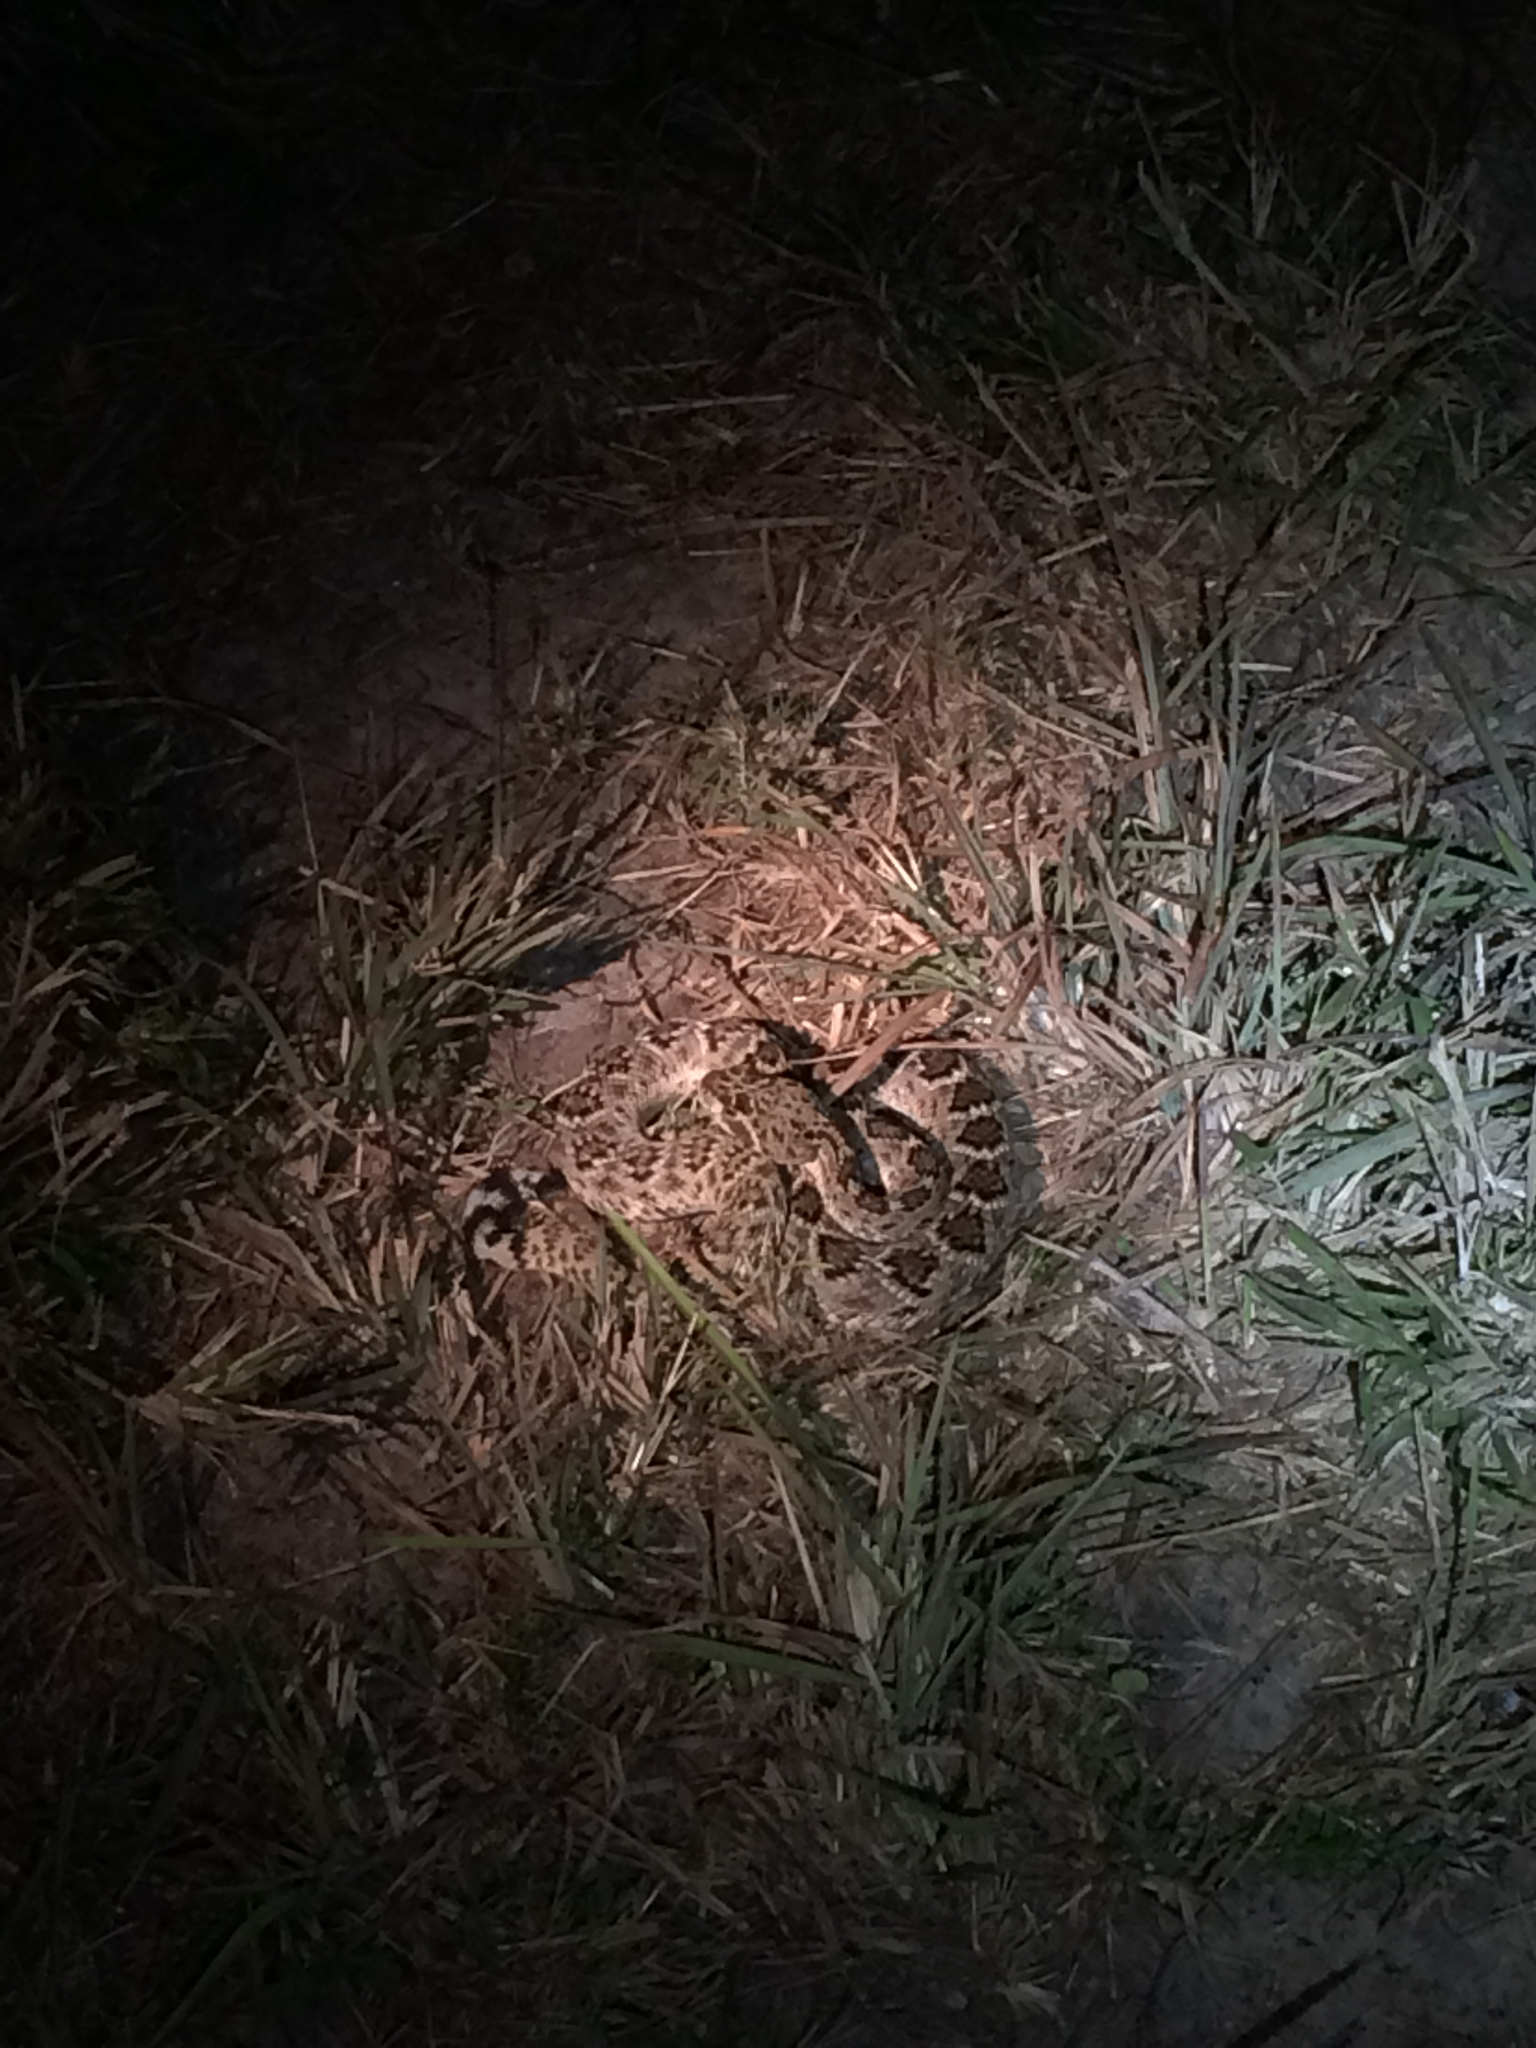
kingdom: Animalia
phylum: Chordata
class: Squamata
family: Viperidae
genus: Crotalus
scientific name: Crotalus atrox
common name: Western diamond-backed rattlesnake
